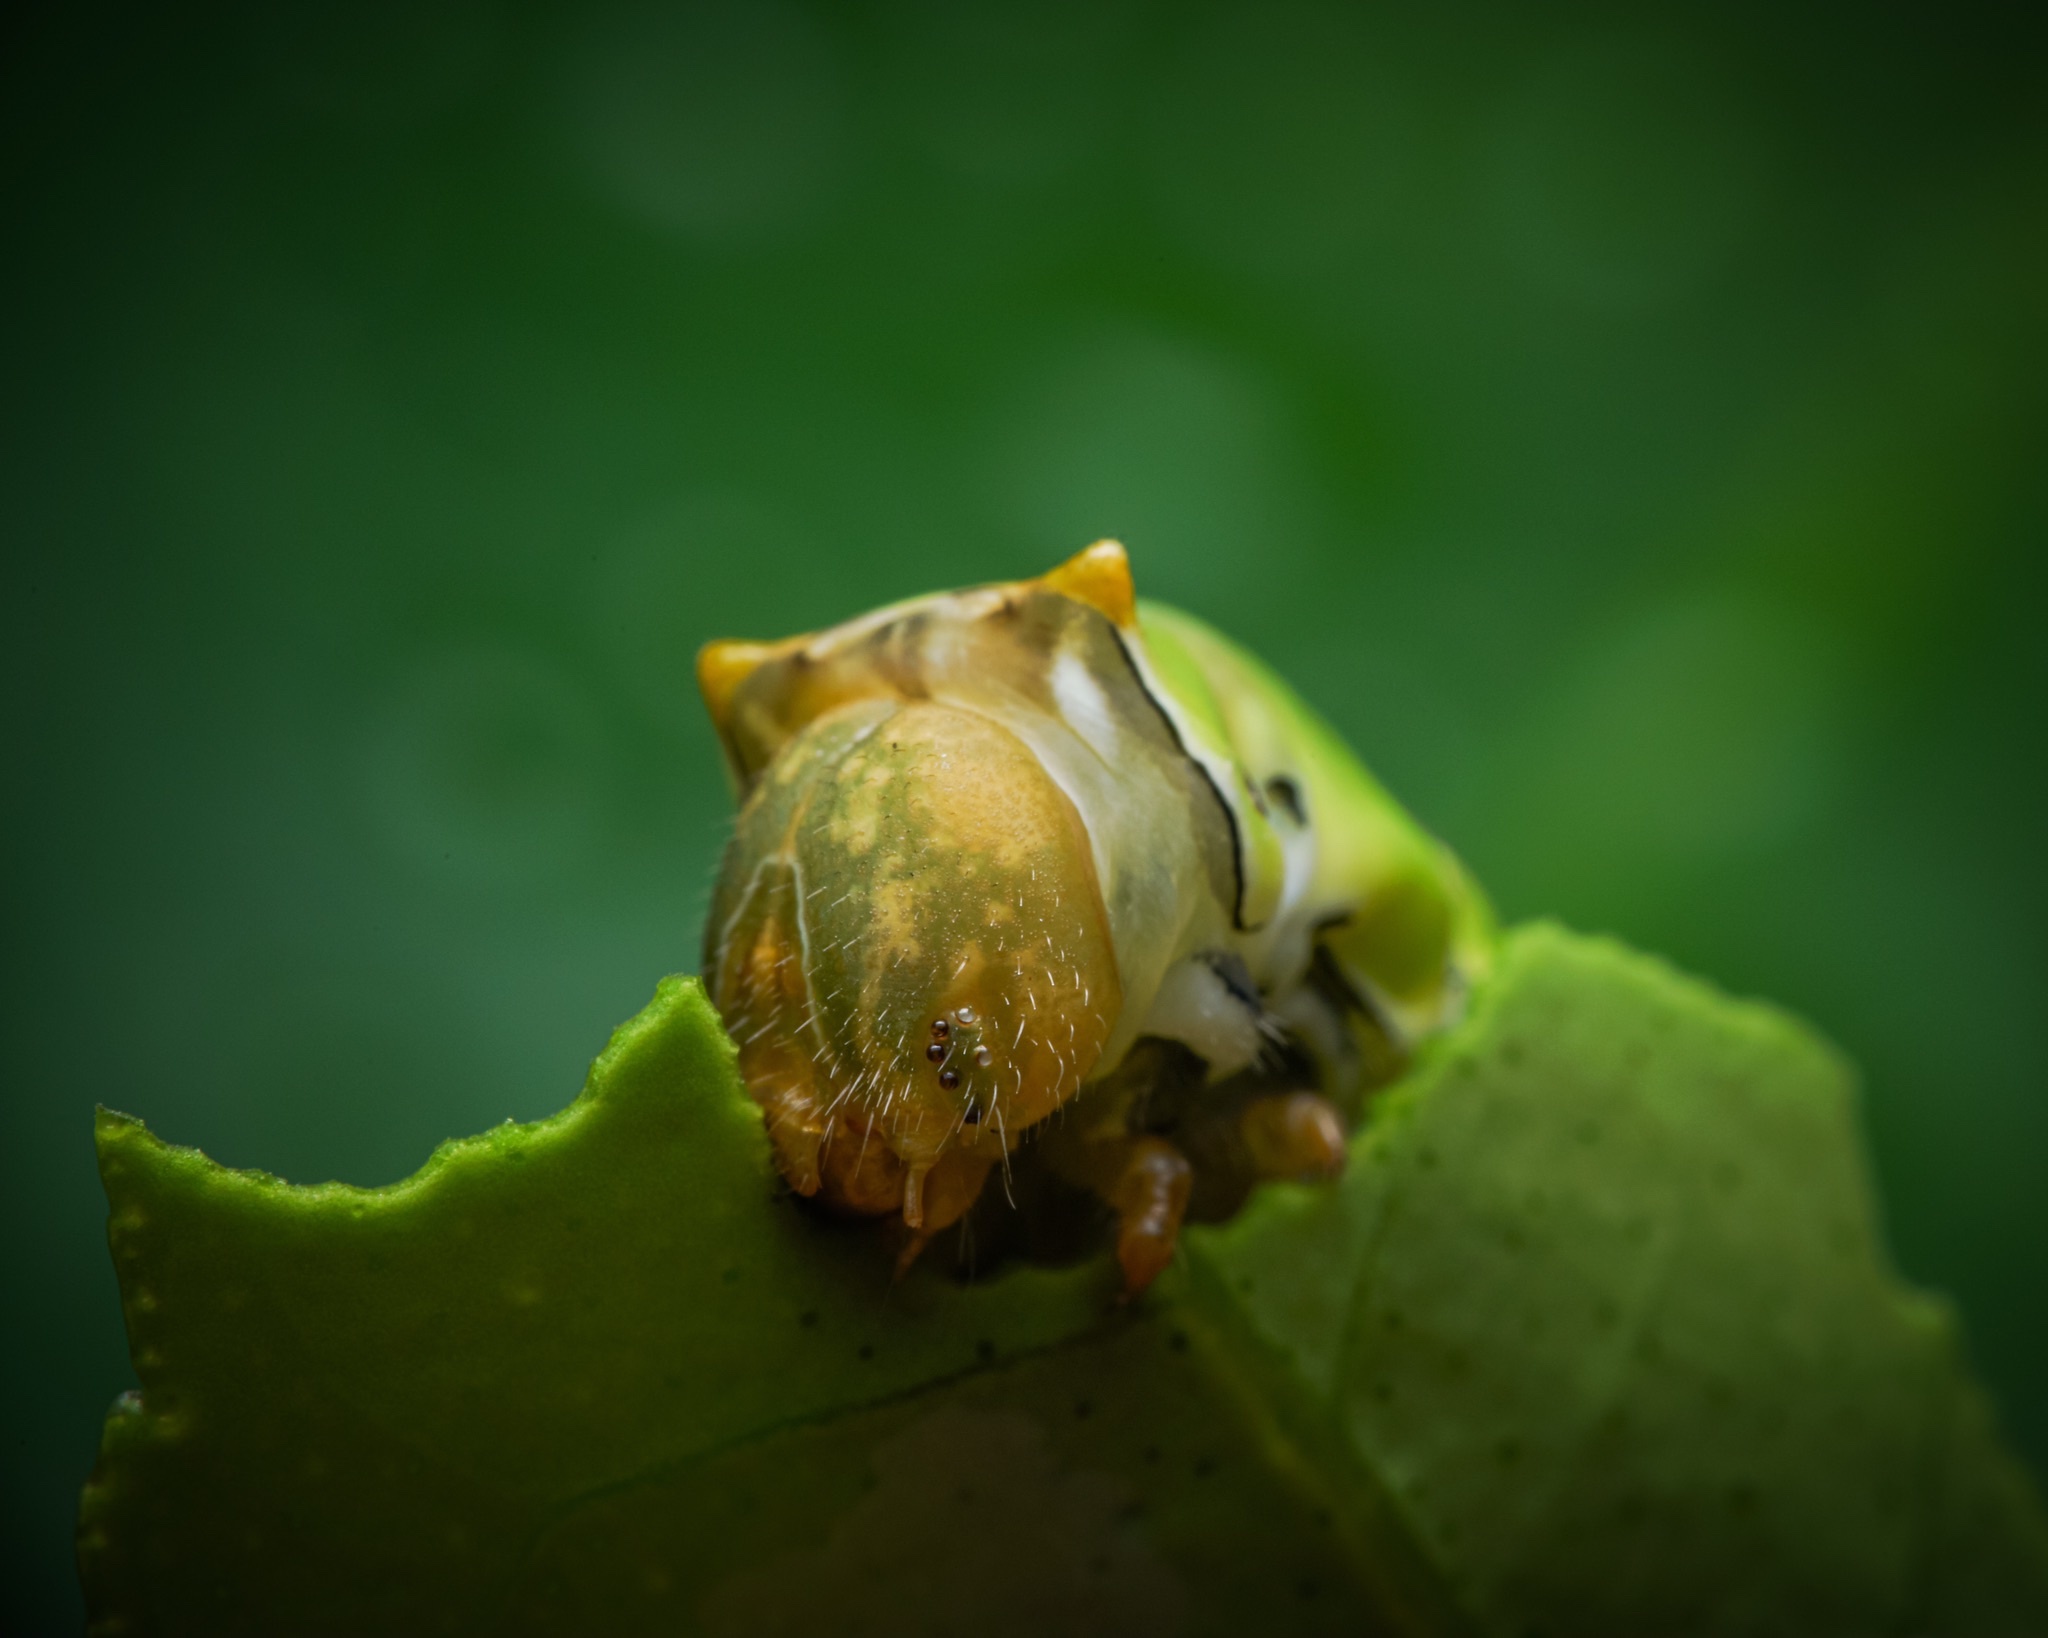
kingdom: Animalia
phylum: Arthropoda
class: Insecta
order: Lepidoptera
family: Papilionidae
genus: Papilio
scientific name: Papilio demoleus
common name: Lime butterfly
